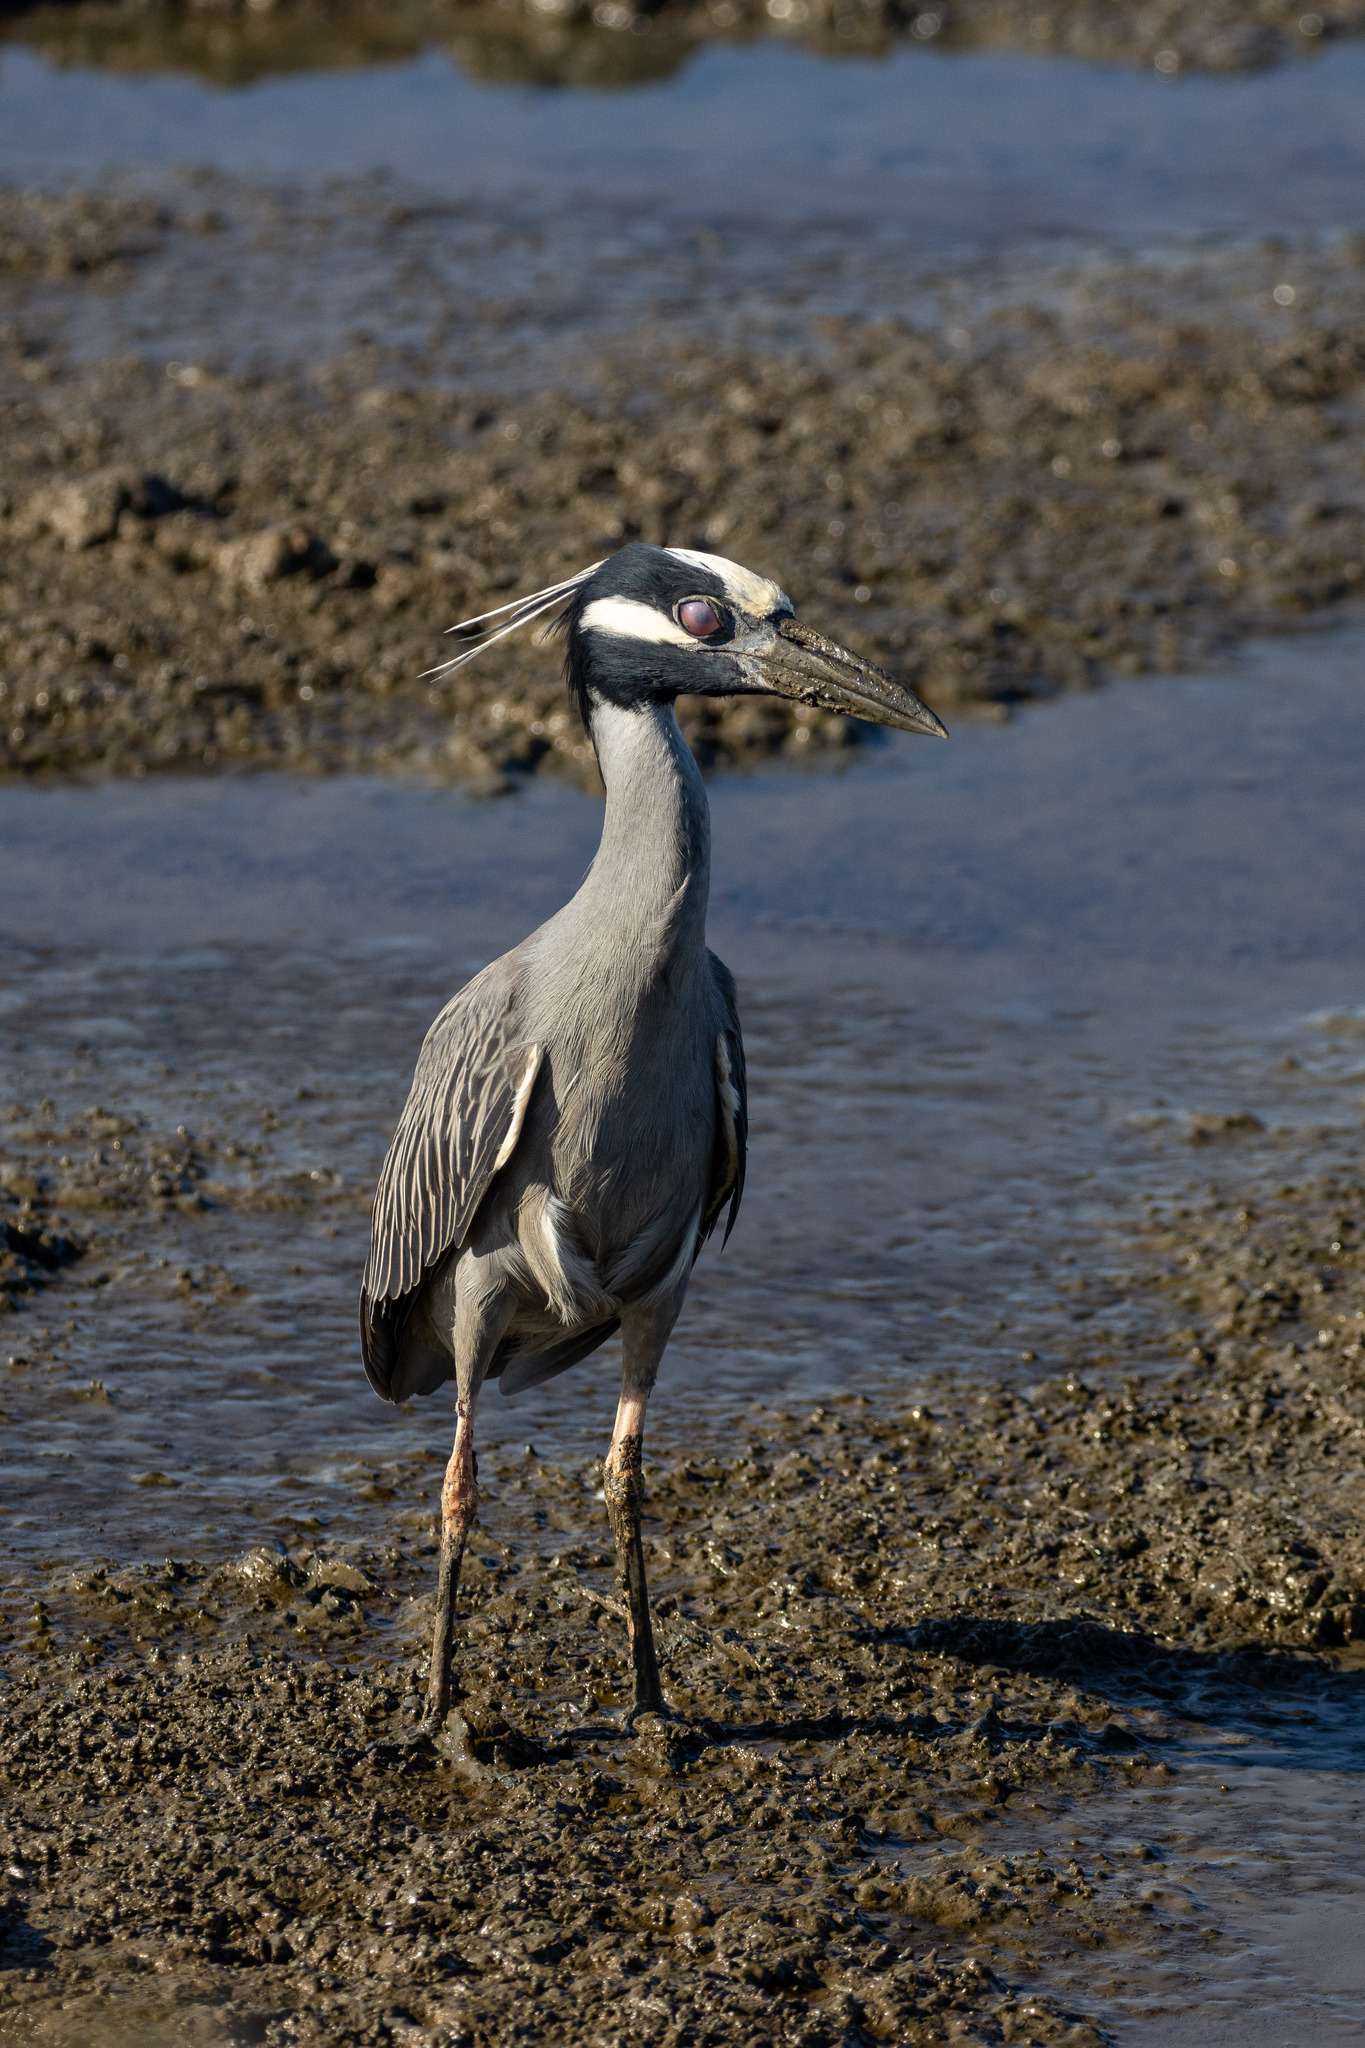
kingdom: Animalia
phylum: Chordata
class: Aves
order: Pelecaniformes
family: Ardeidae
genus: Nyctanassa
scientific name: Nyctanassa violacea
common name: Yellow-crowned night heron
